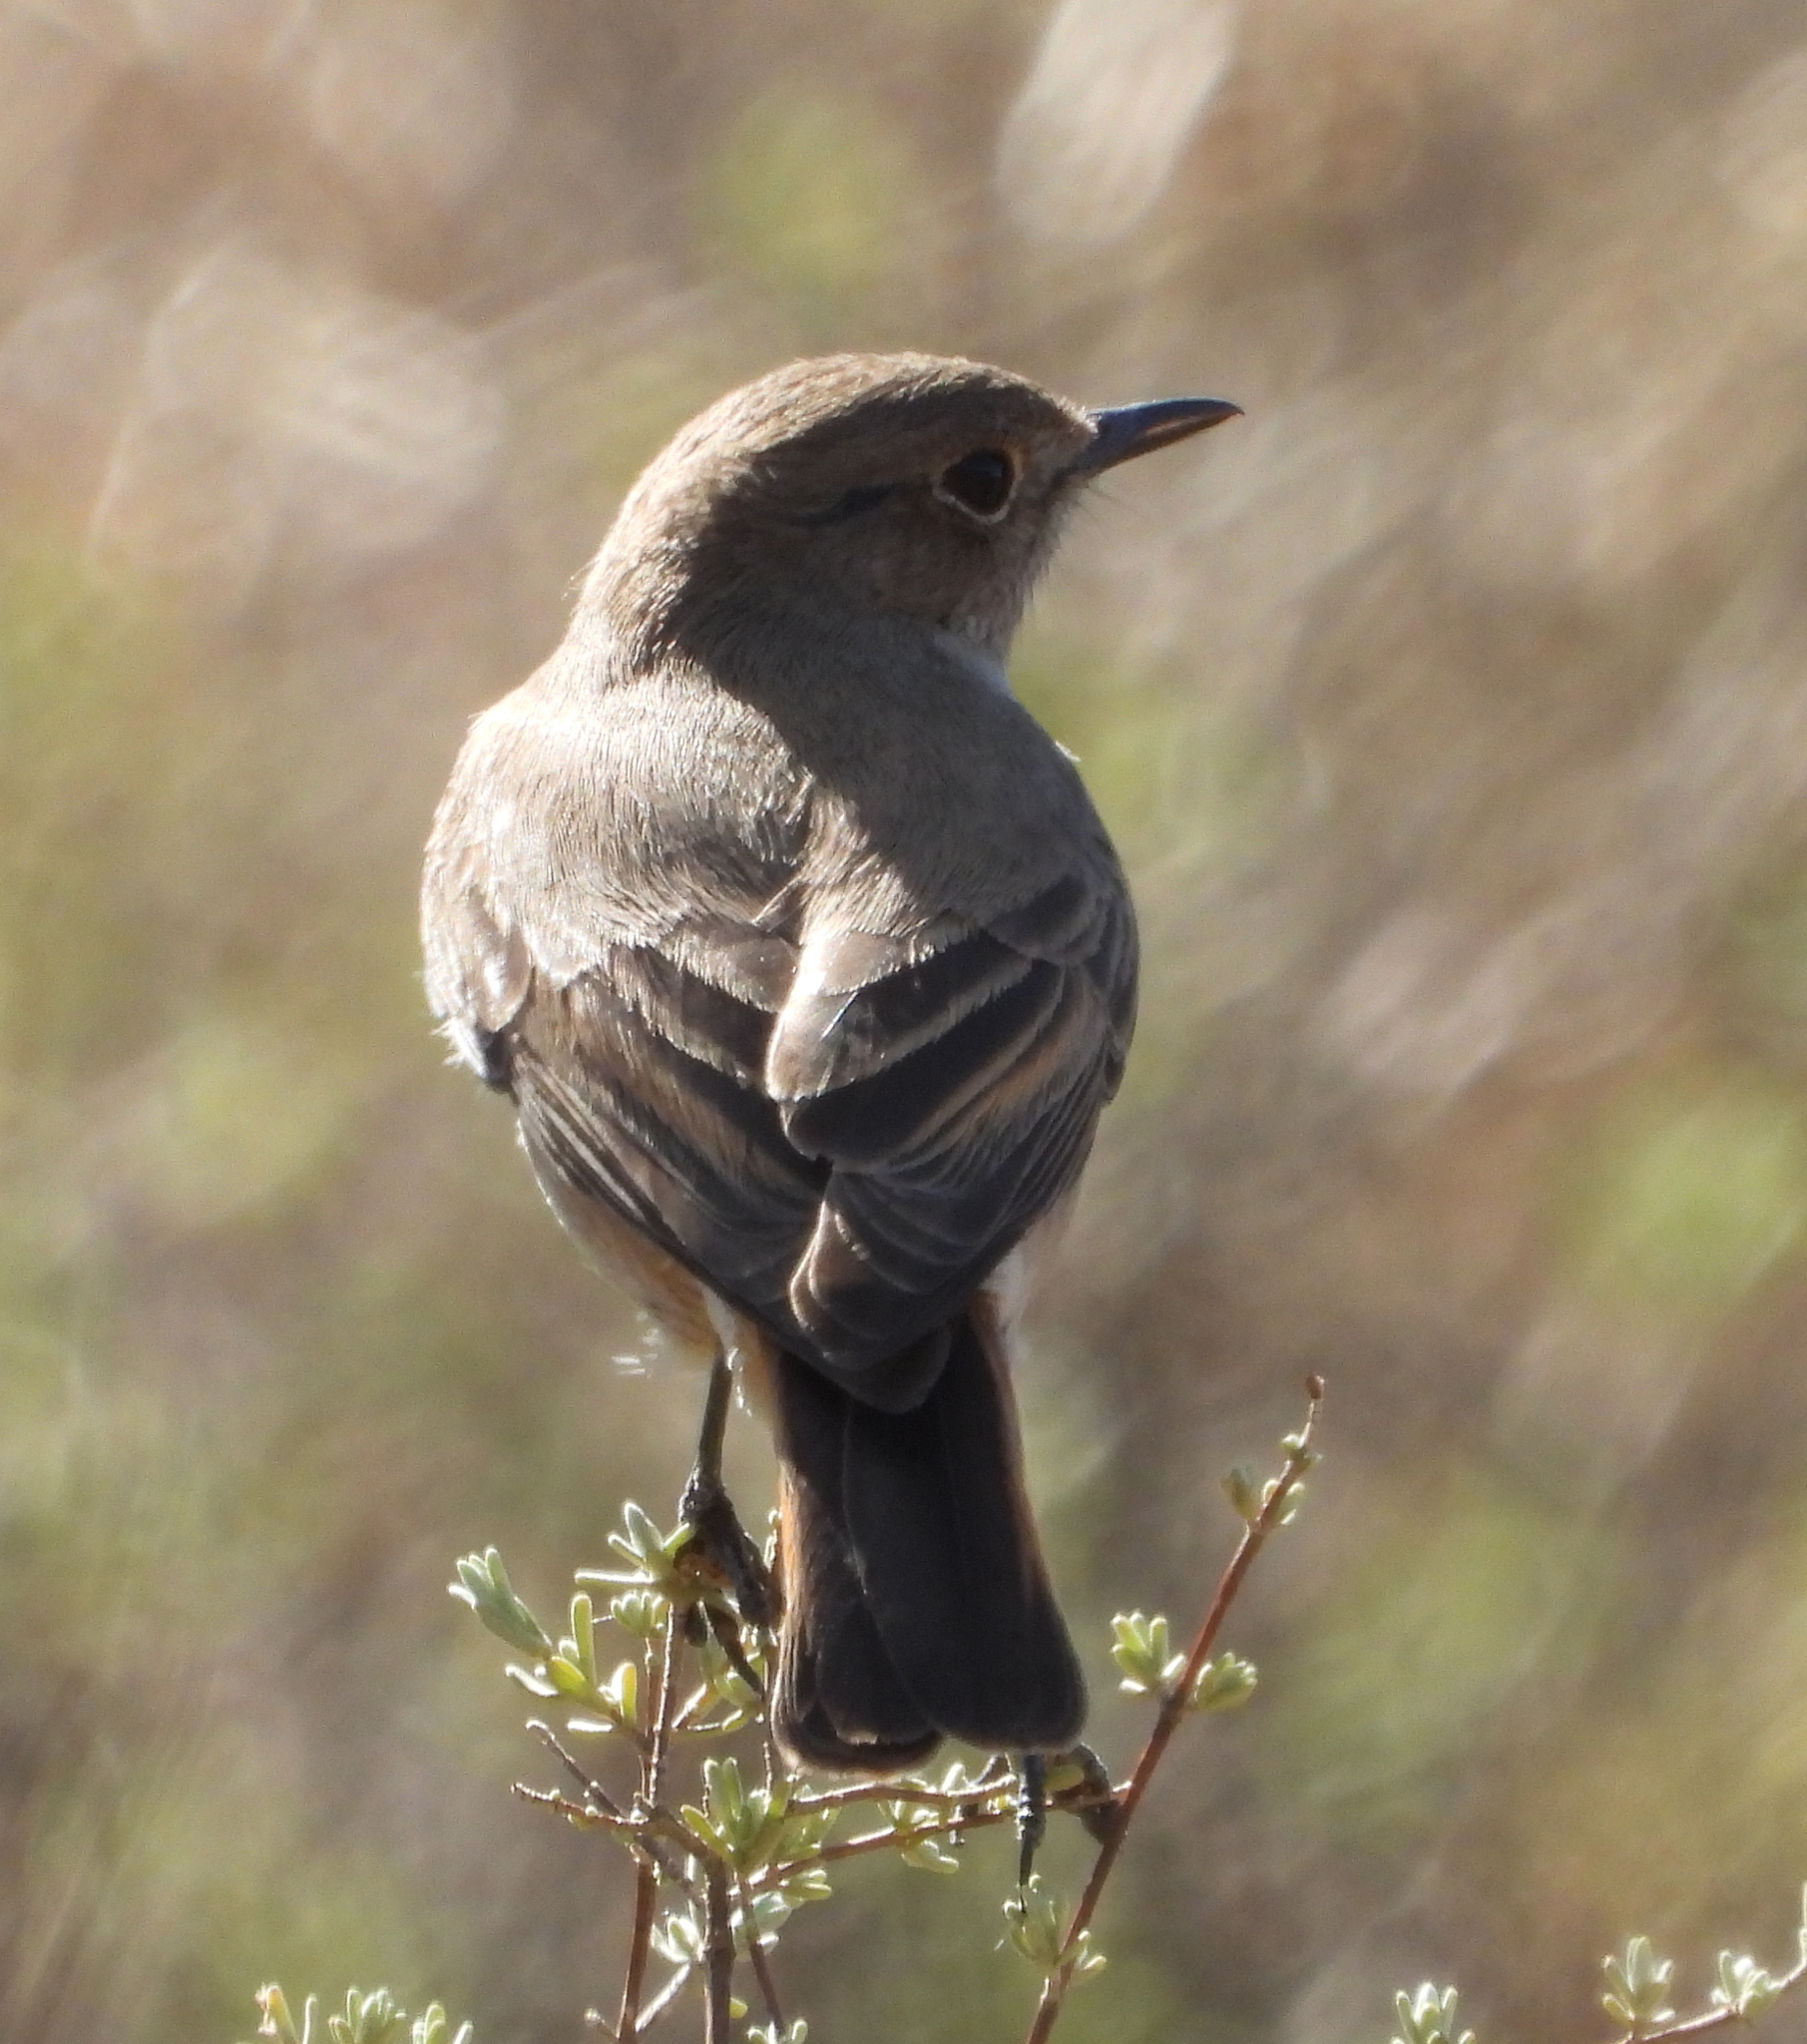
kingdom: Animalia
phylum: Chordata
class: Aves
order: Passeriformes
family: Muscicapidae
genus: Emarginata
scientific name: Emarginata sinuata
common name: Sickle-winged chat
